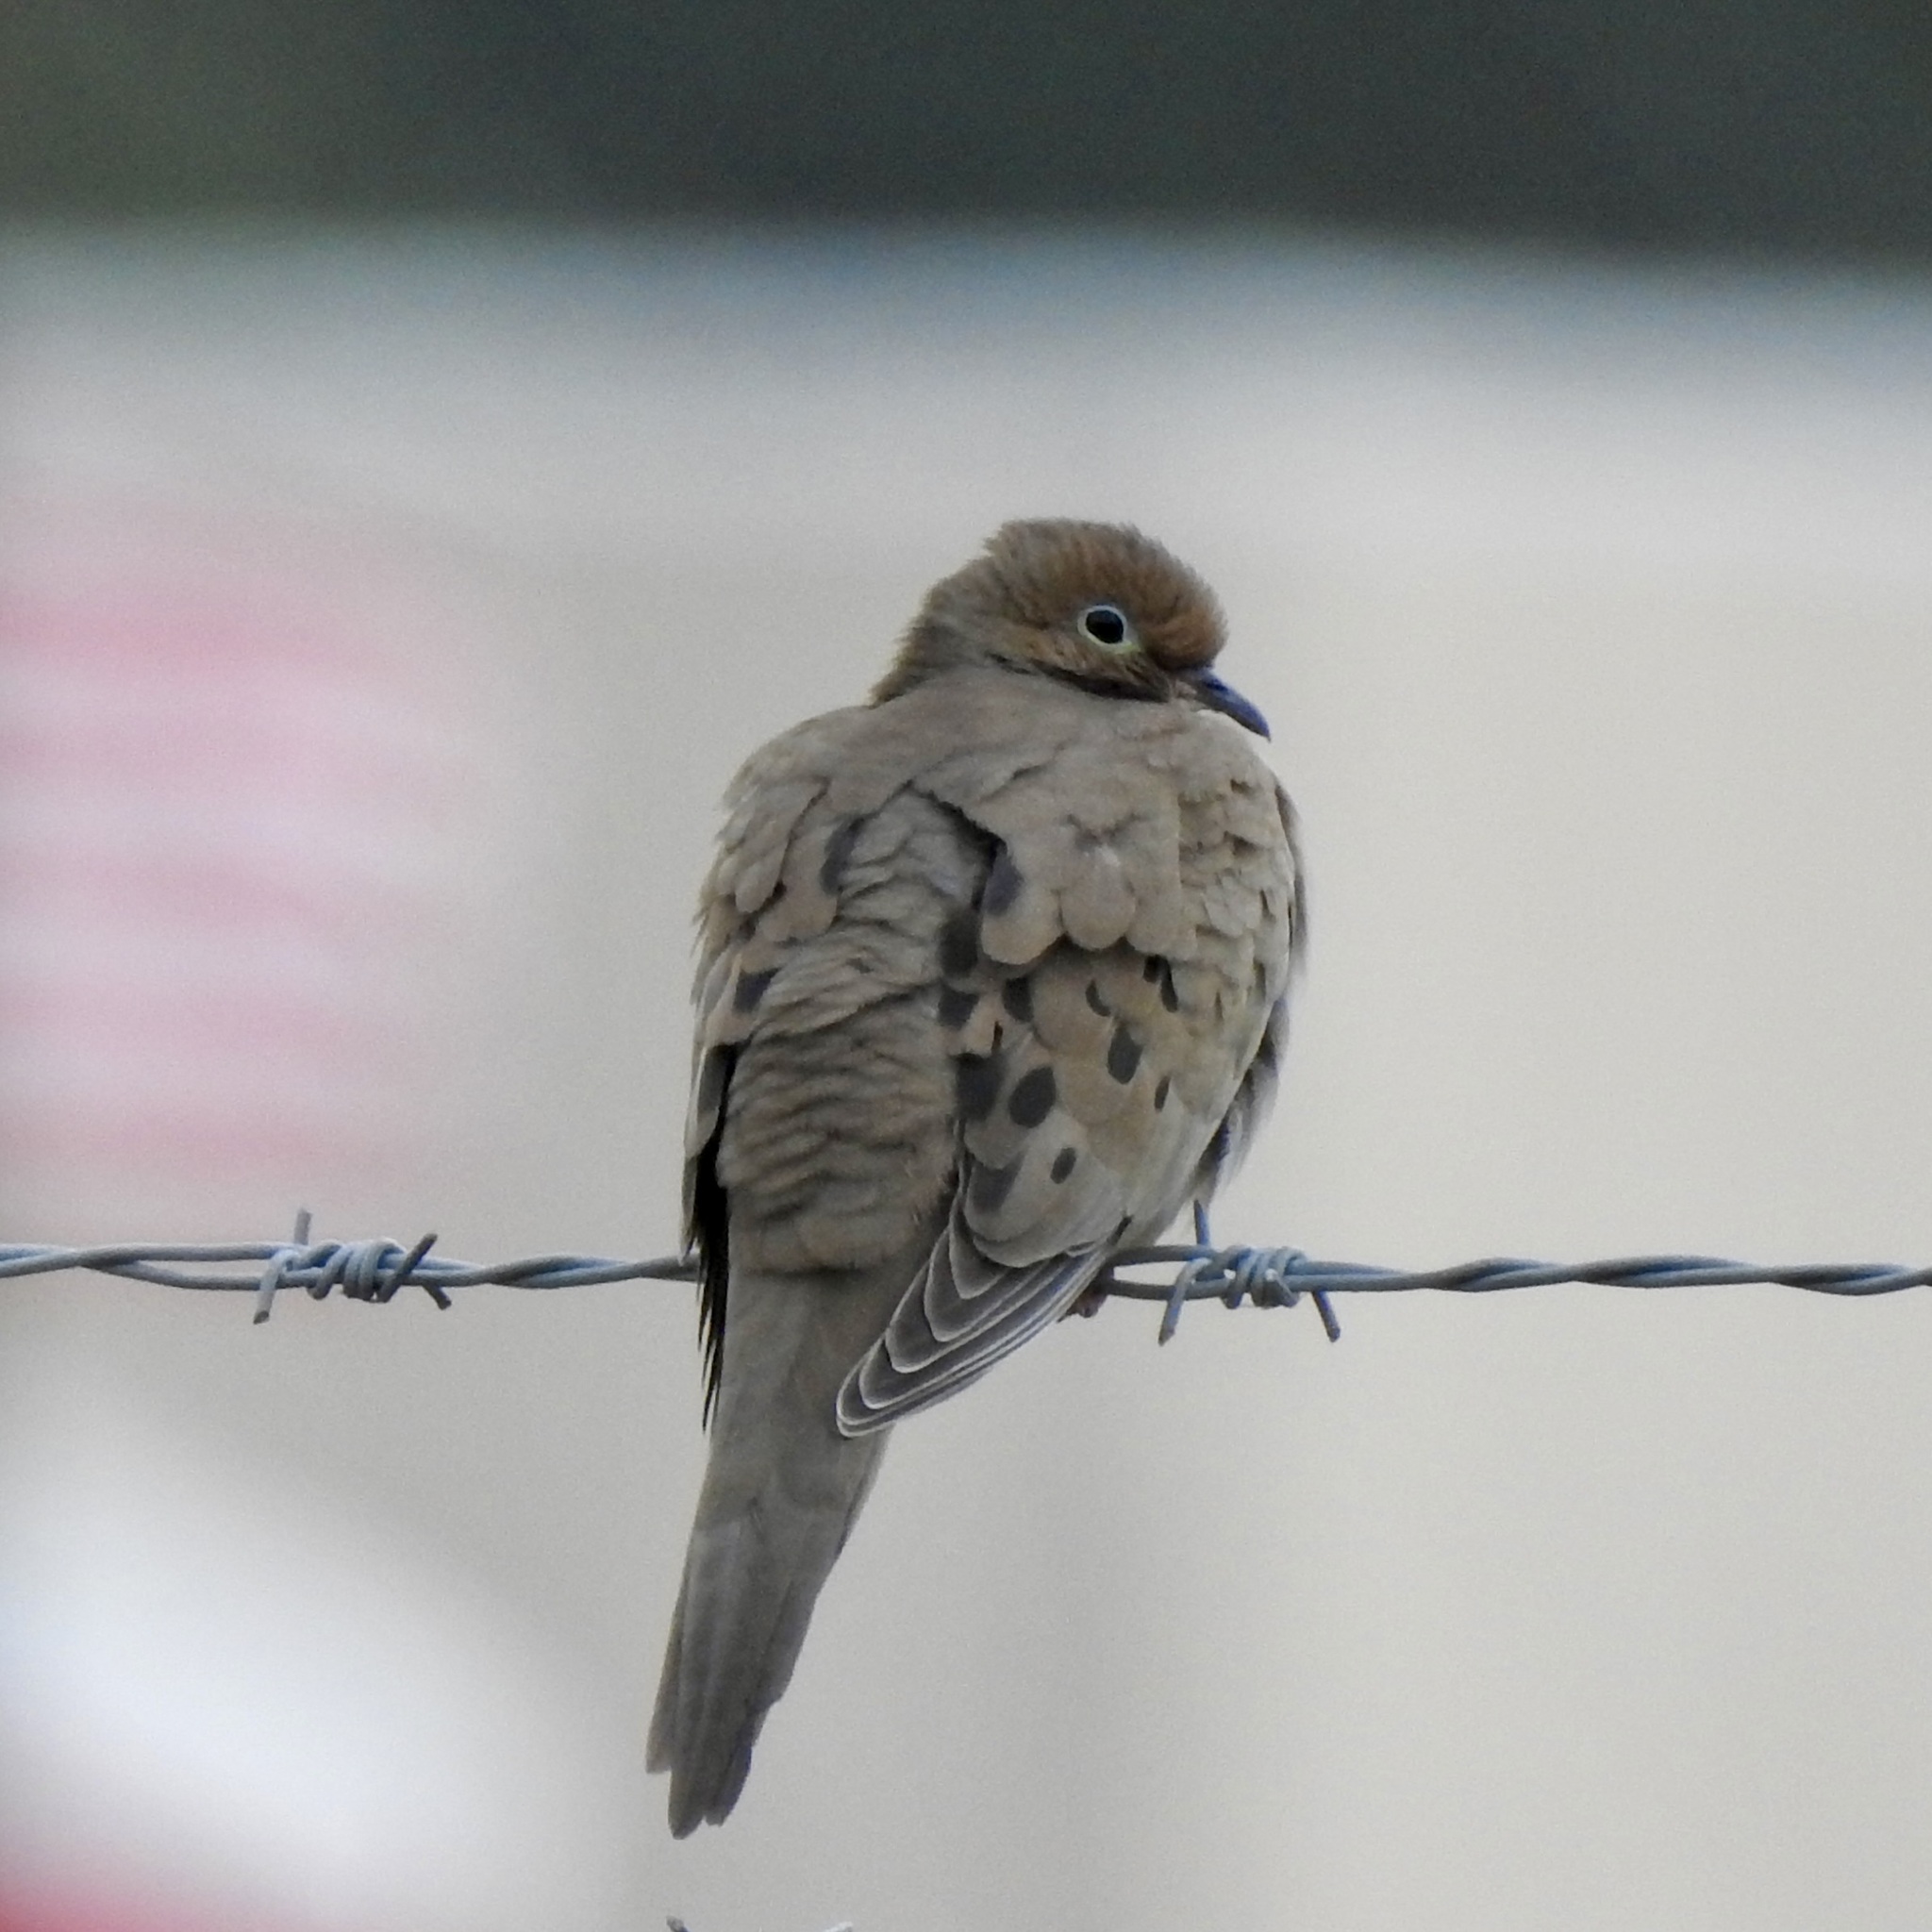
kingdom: Animalia
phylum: Chordata
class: Aves
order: Columbiformes
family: Columbidae
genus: Zenaida
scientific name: Zenaida macroura
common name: Mourning dove
